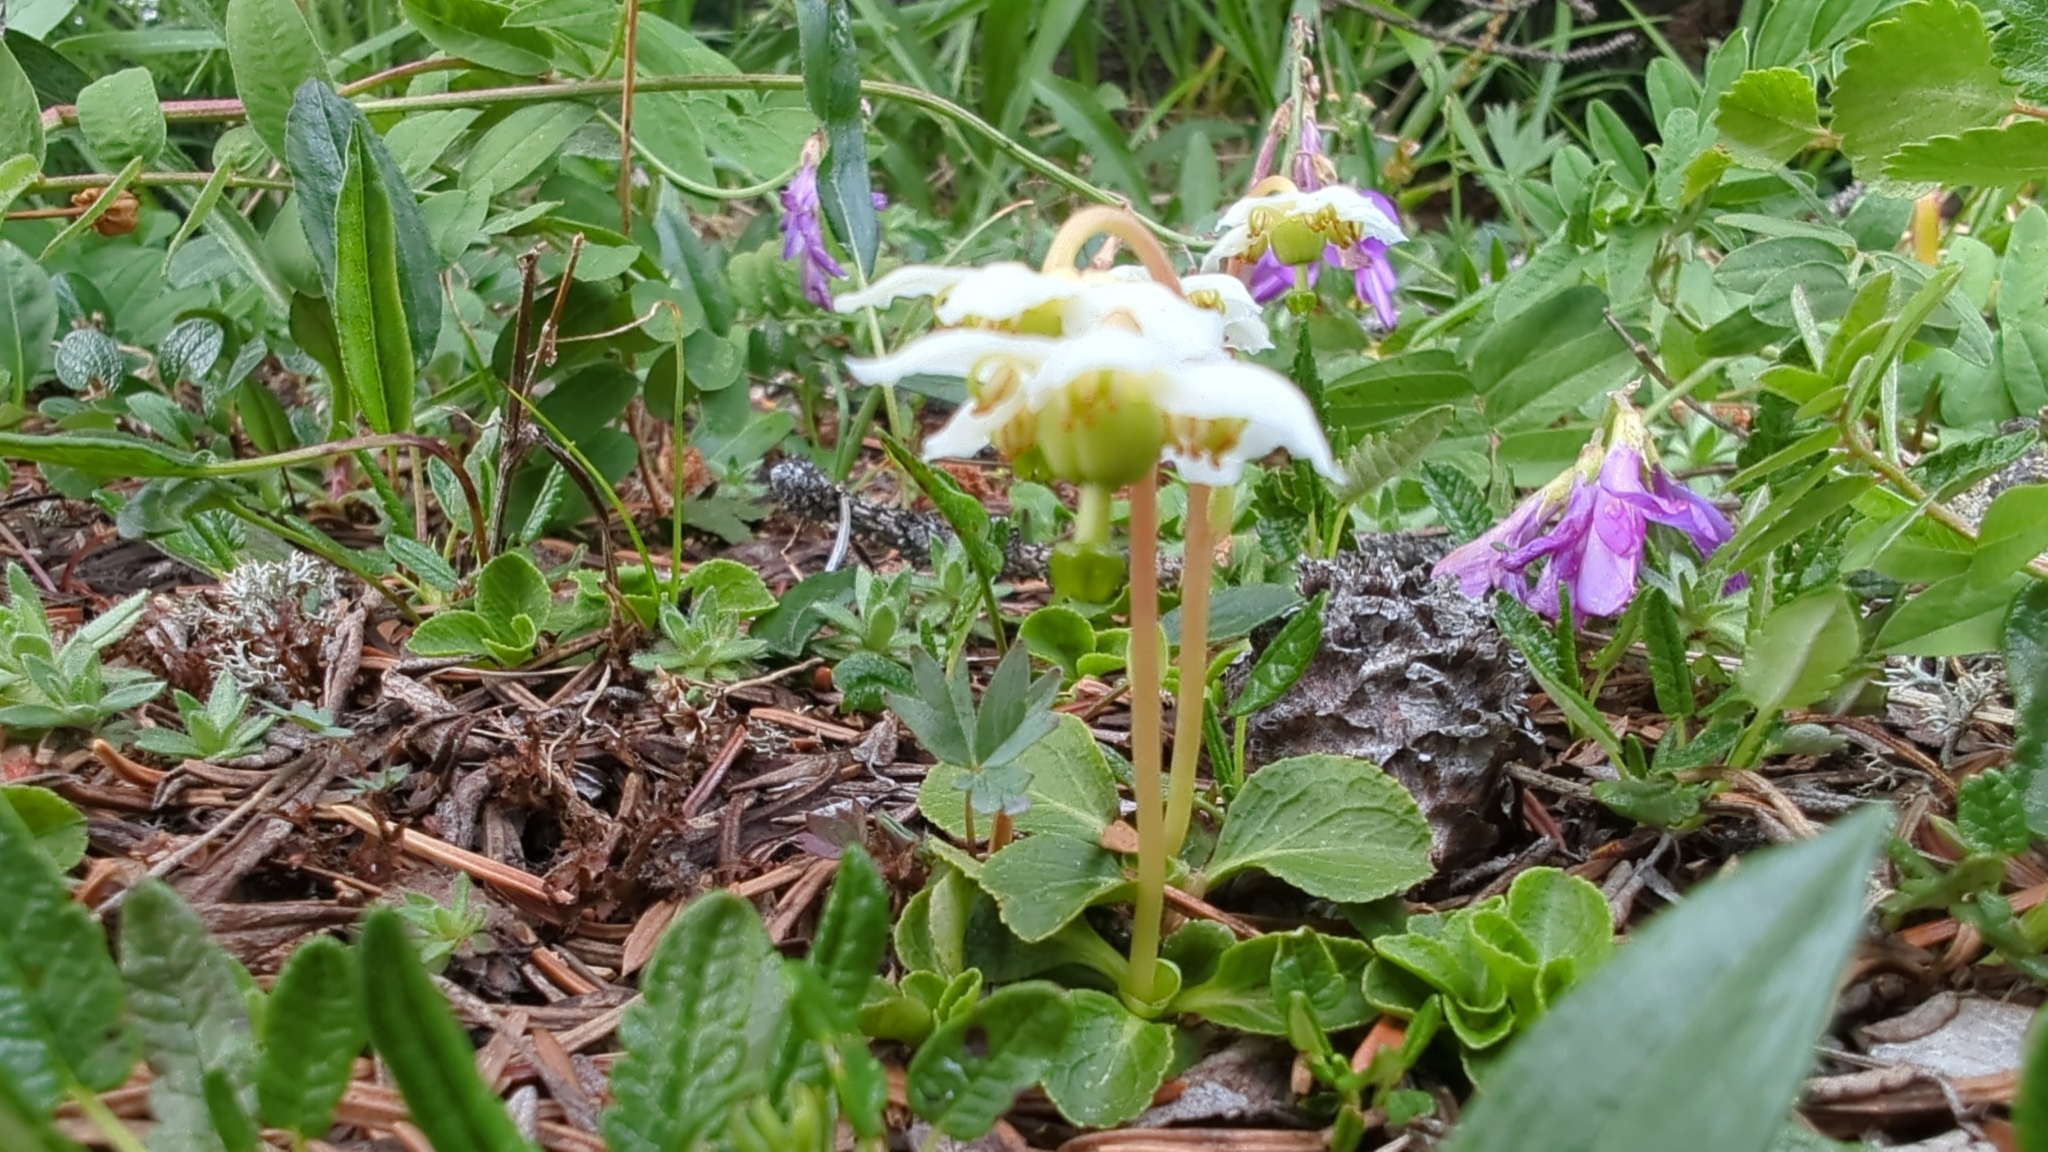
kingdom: Plantae
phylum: Tracheophyta
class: Magnoliopsida
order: Ericales
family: Ericaceae
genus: Moneses
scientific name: Moneses uniflora
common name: One-flowered wintergreen
